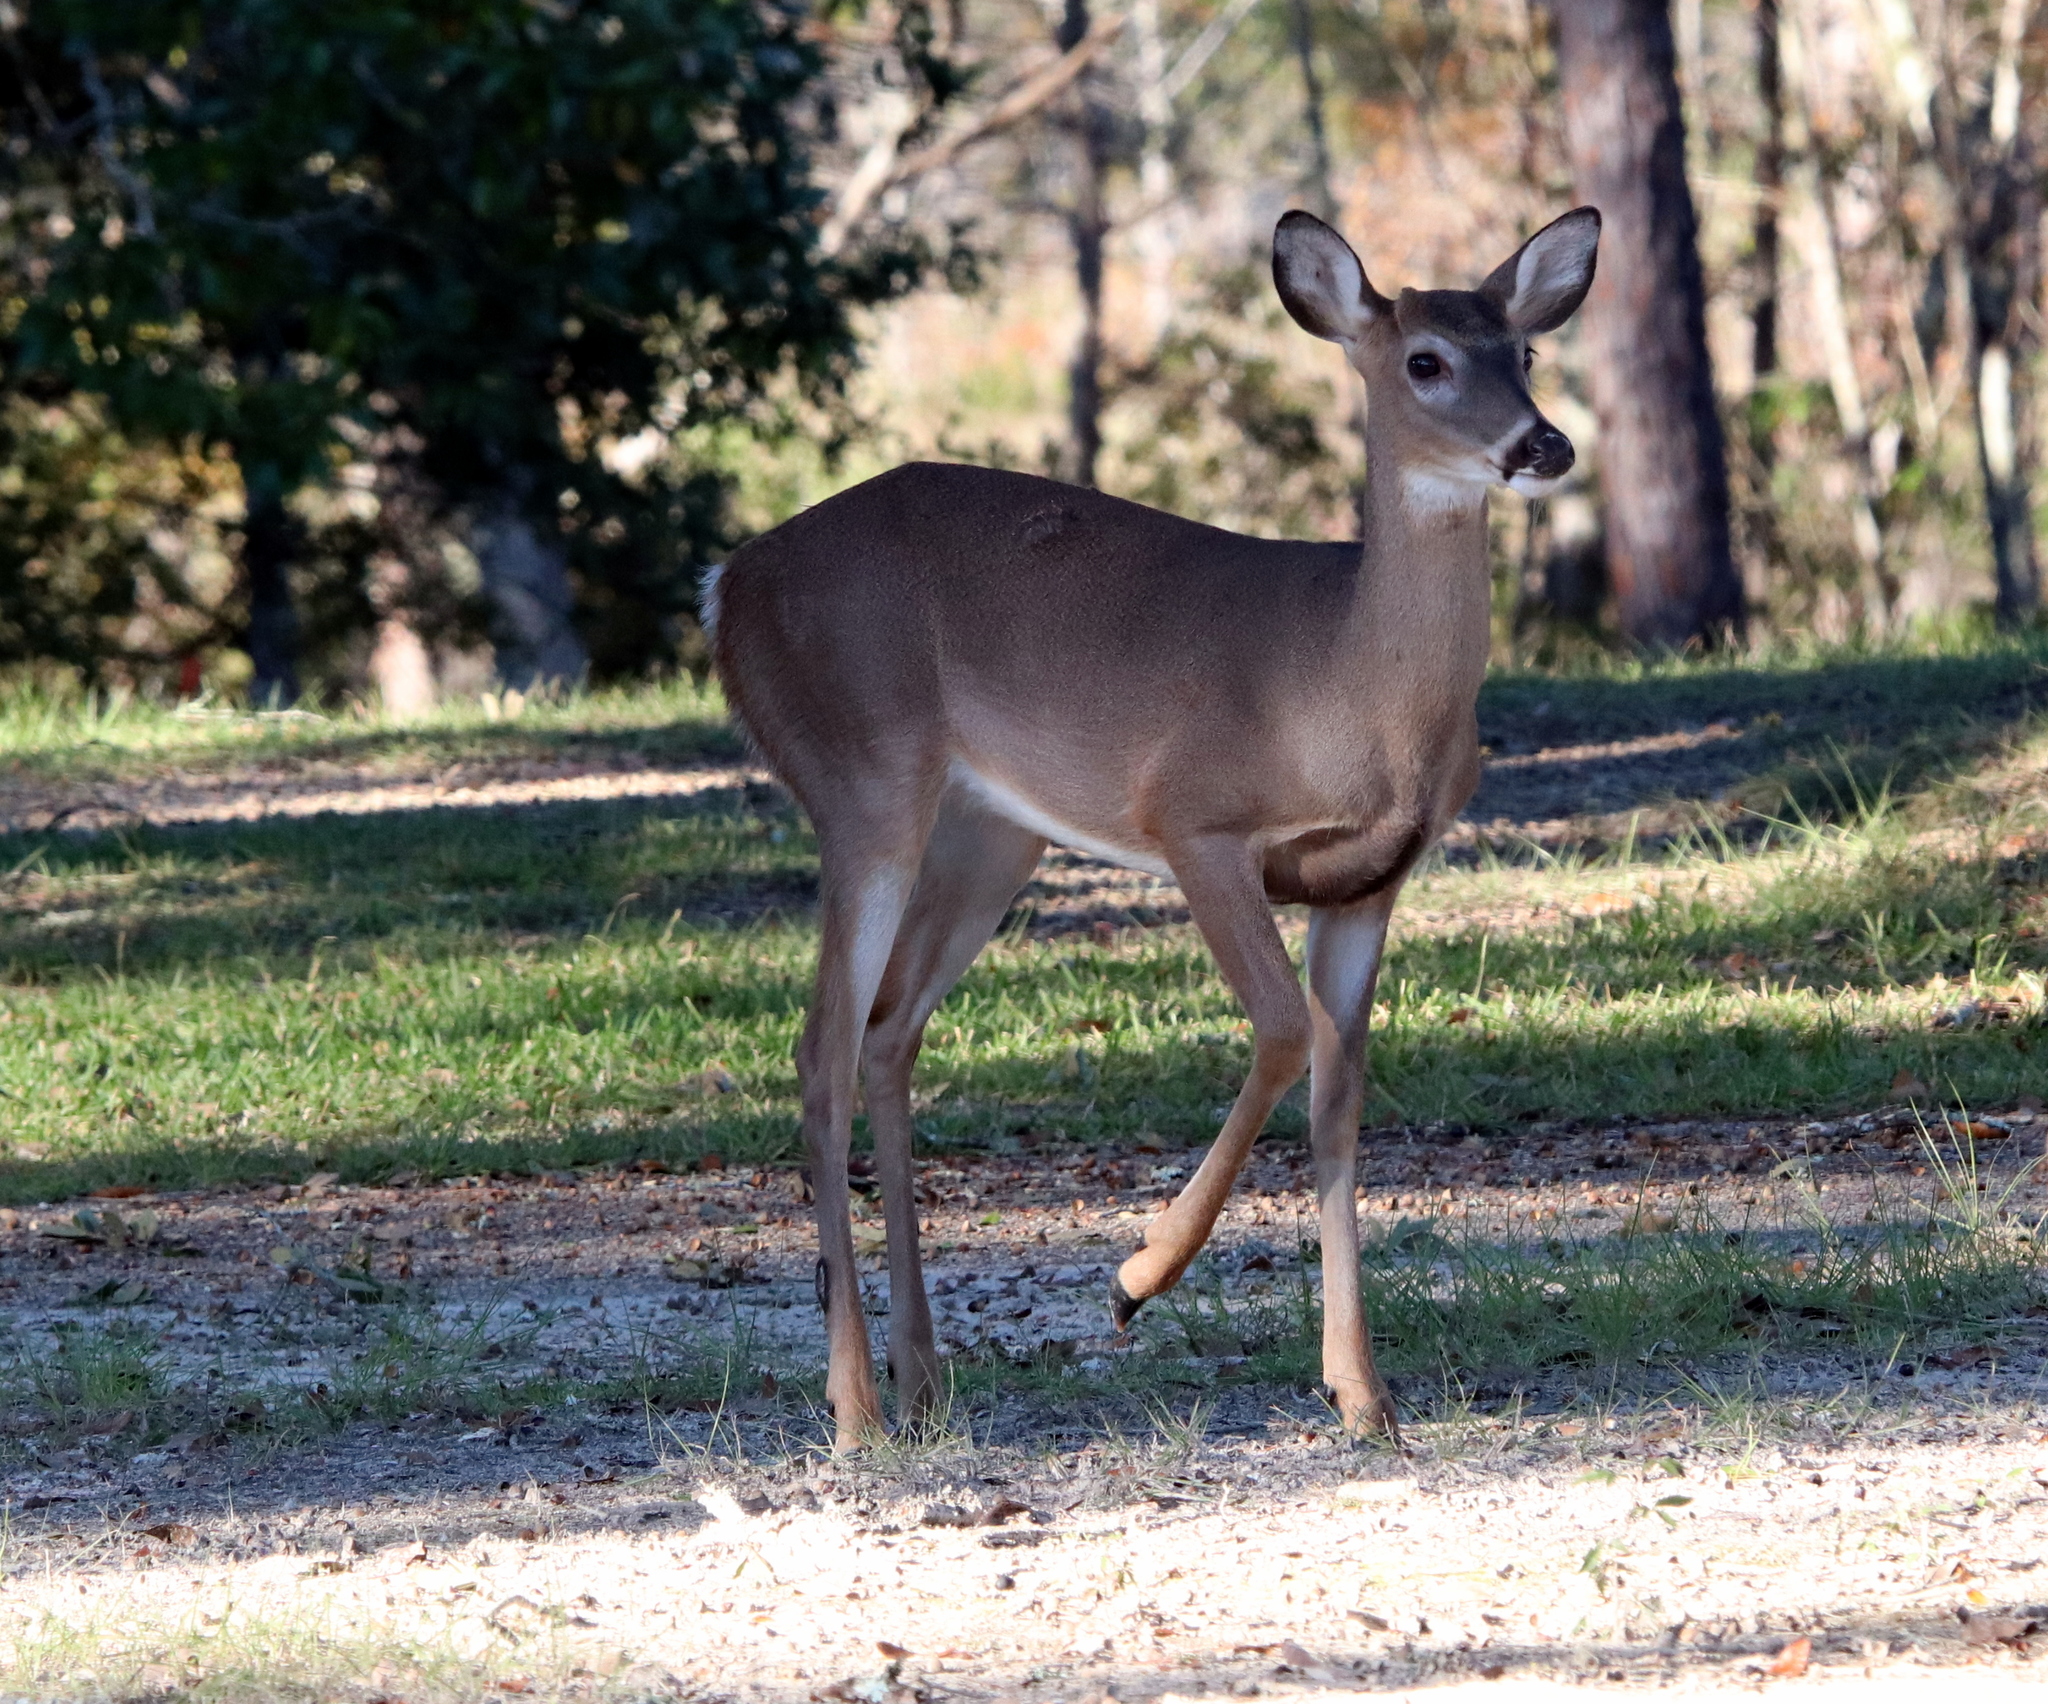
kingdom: Animalia
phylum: Chordata
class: Mammalia
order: Artiodactyla
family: Cervidae
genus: Odocoileus
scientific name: Odocoileus virginianus
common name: White-tailed deer
